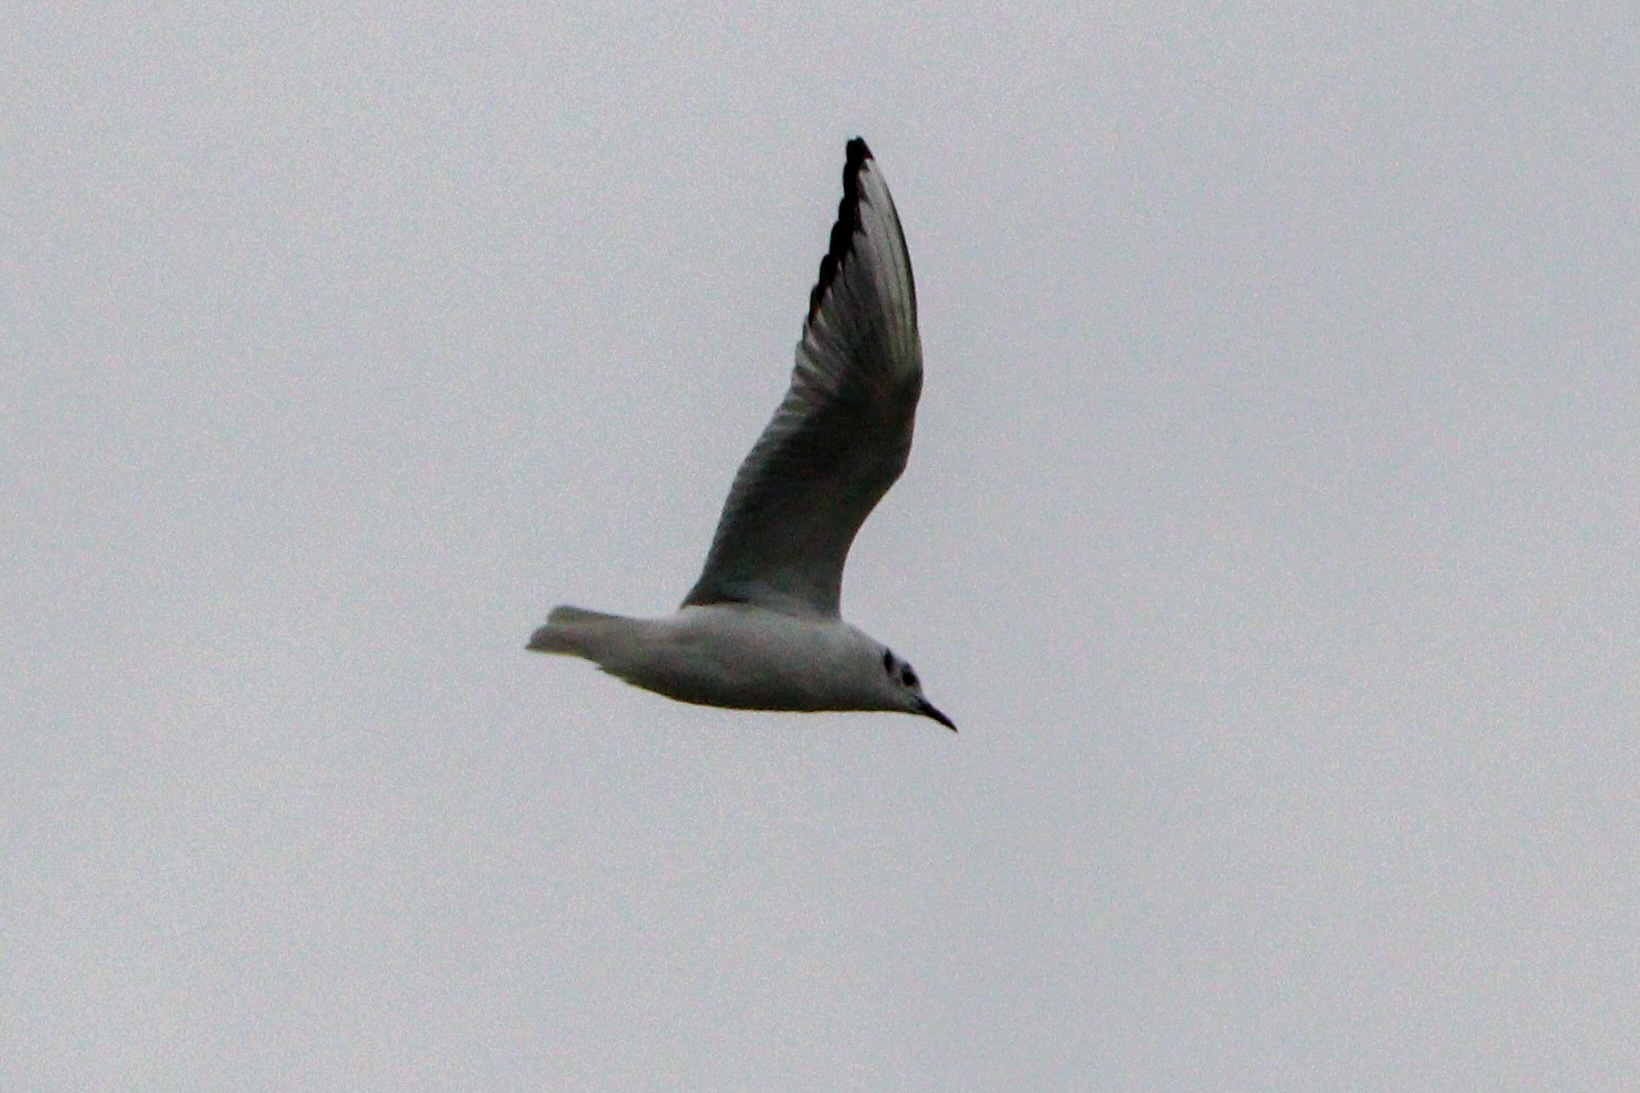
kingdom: Animalia
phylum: Chordata
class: Aves
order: Charadriiformes
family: Laridae
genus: Chroicocephalus
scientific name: Chroicocephalus philadelphia
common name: Bonaparte's gull
